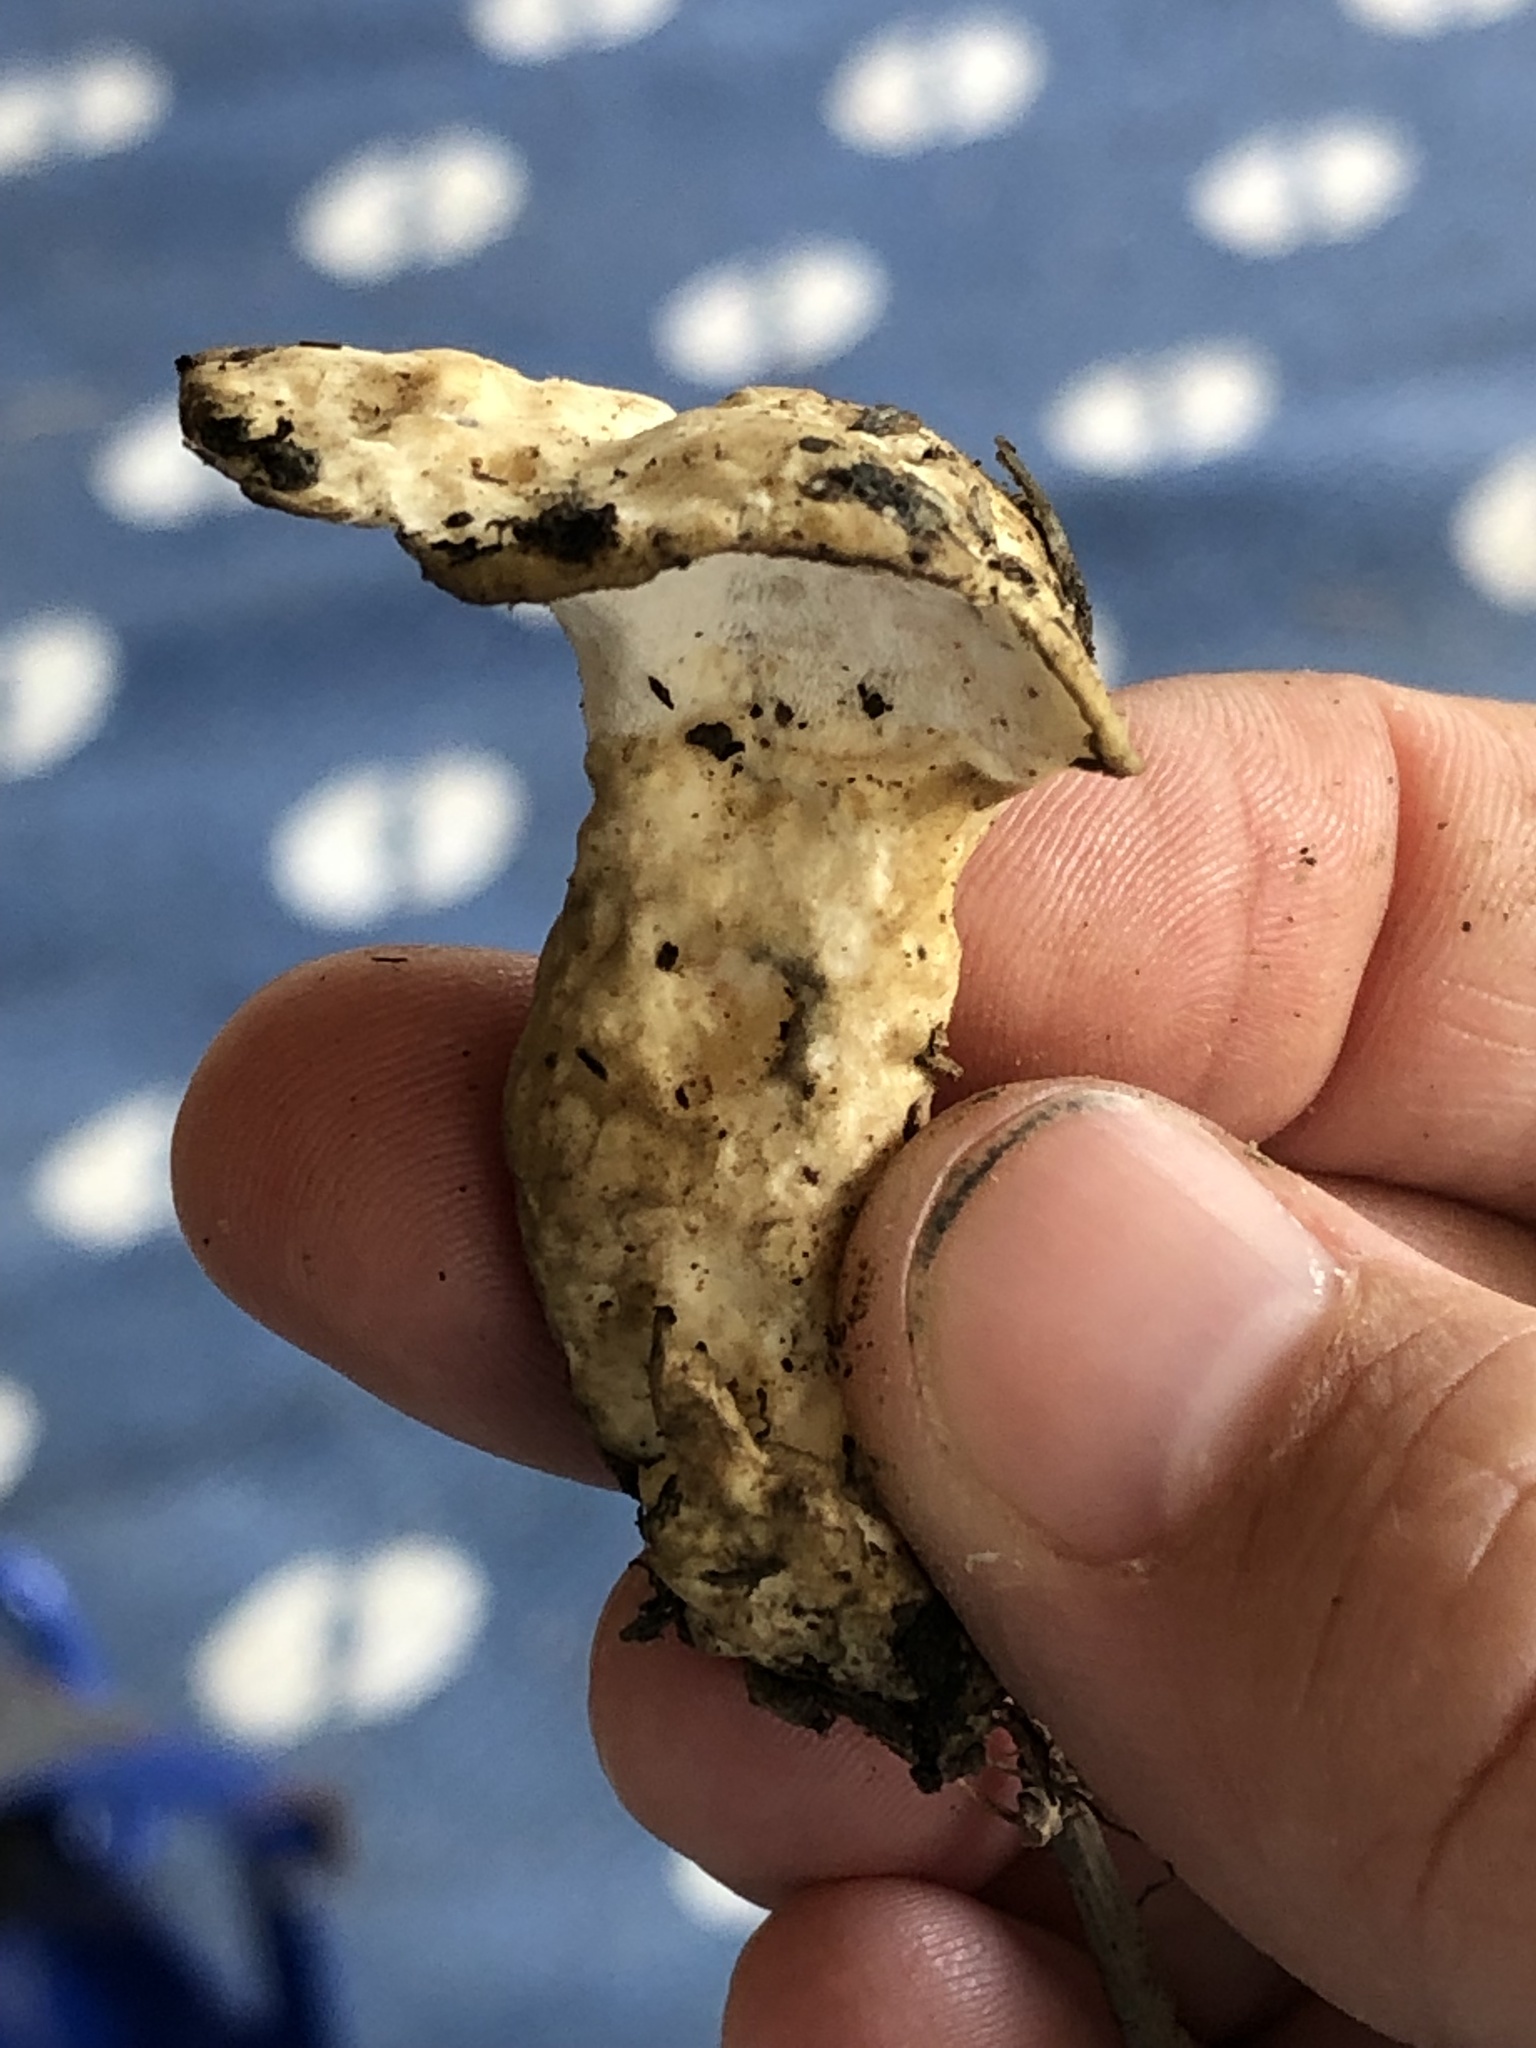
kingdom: Fungi
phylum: Basidiomycota
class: Agaricomycetes
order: Polyporales
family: Steccherinaceae
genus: Loweomyces
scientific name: Loweomyces fractipes
